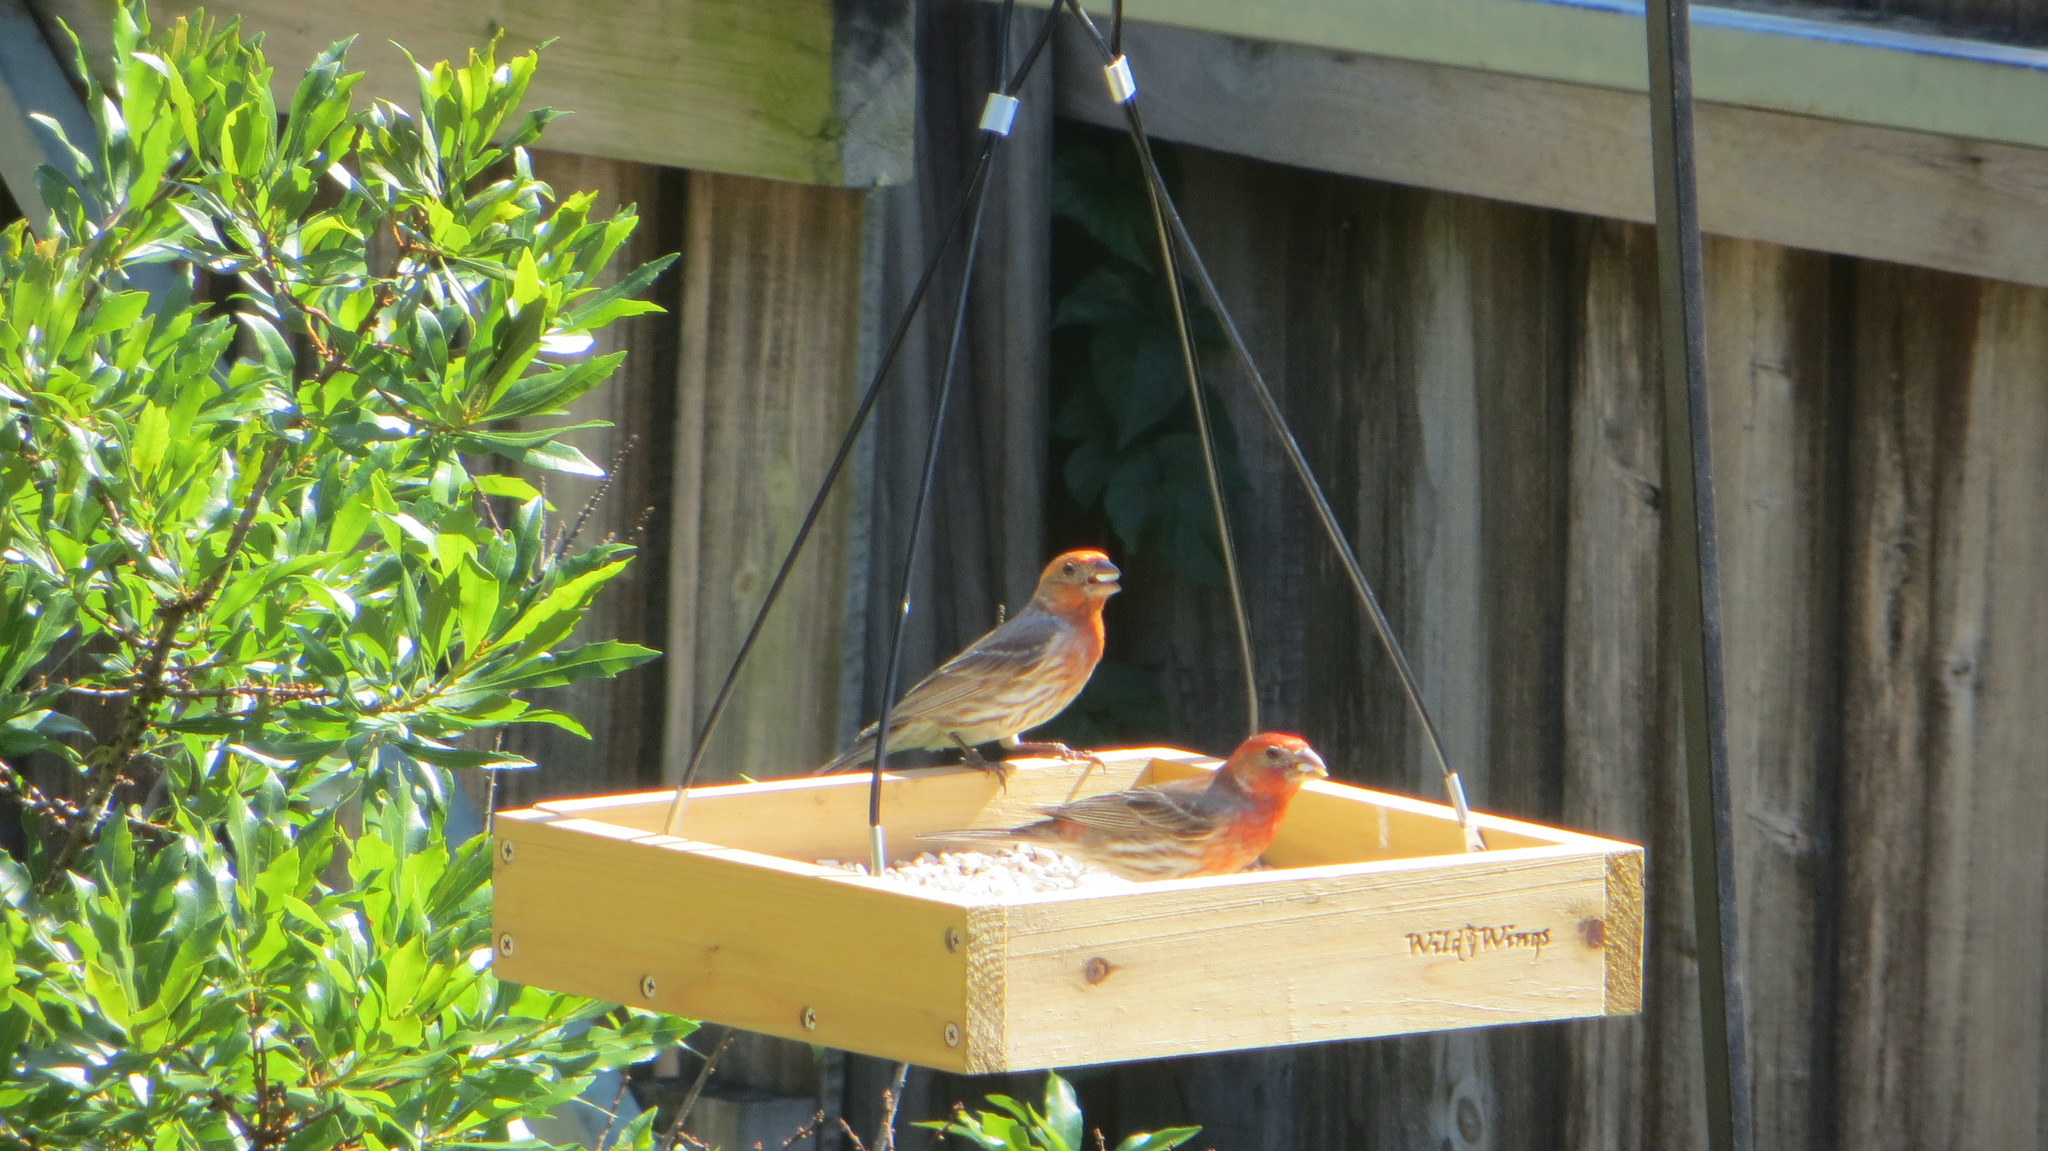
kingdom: Animalia
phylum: Chordata
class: Aves
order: Passeriformes
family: Fringillidae
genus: Haemorhous
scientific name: Haemorhous mexicanus
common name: House finch
